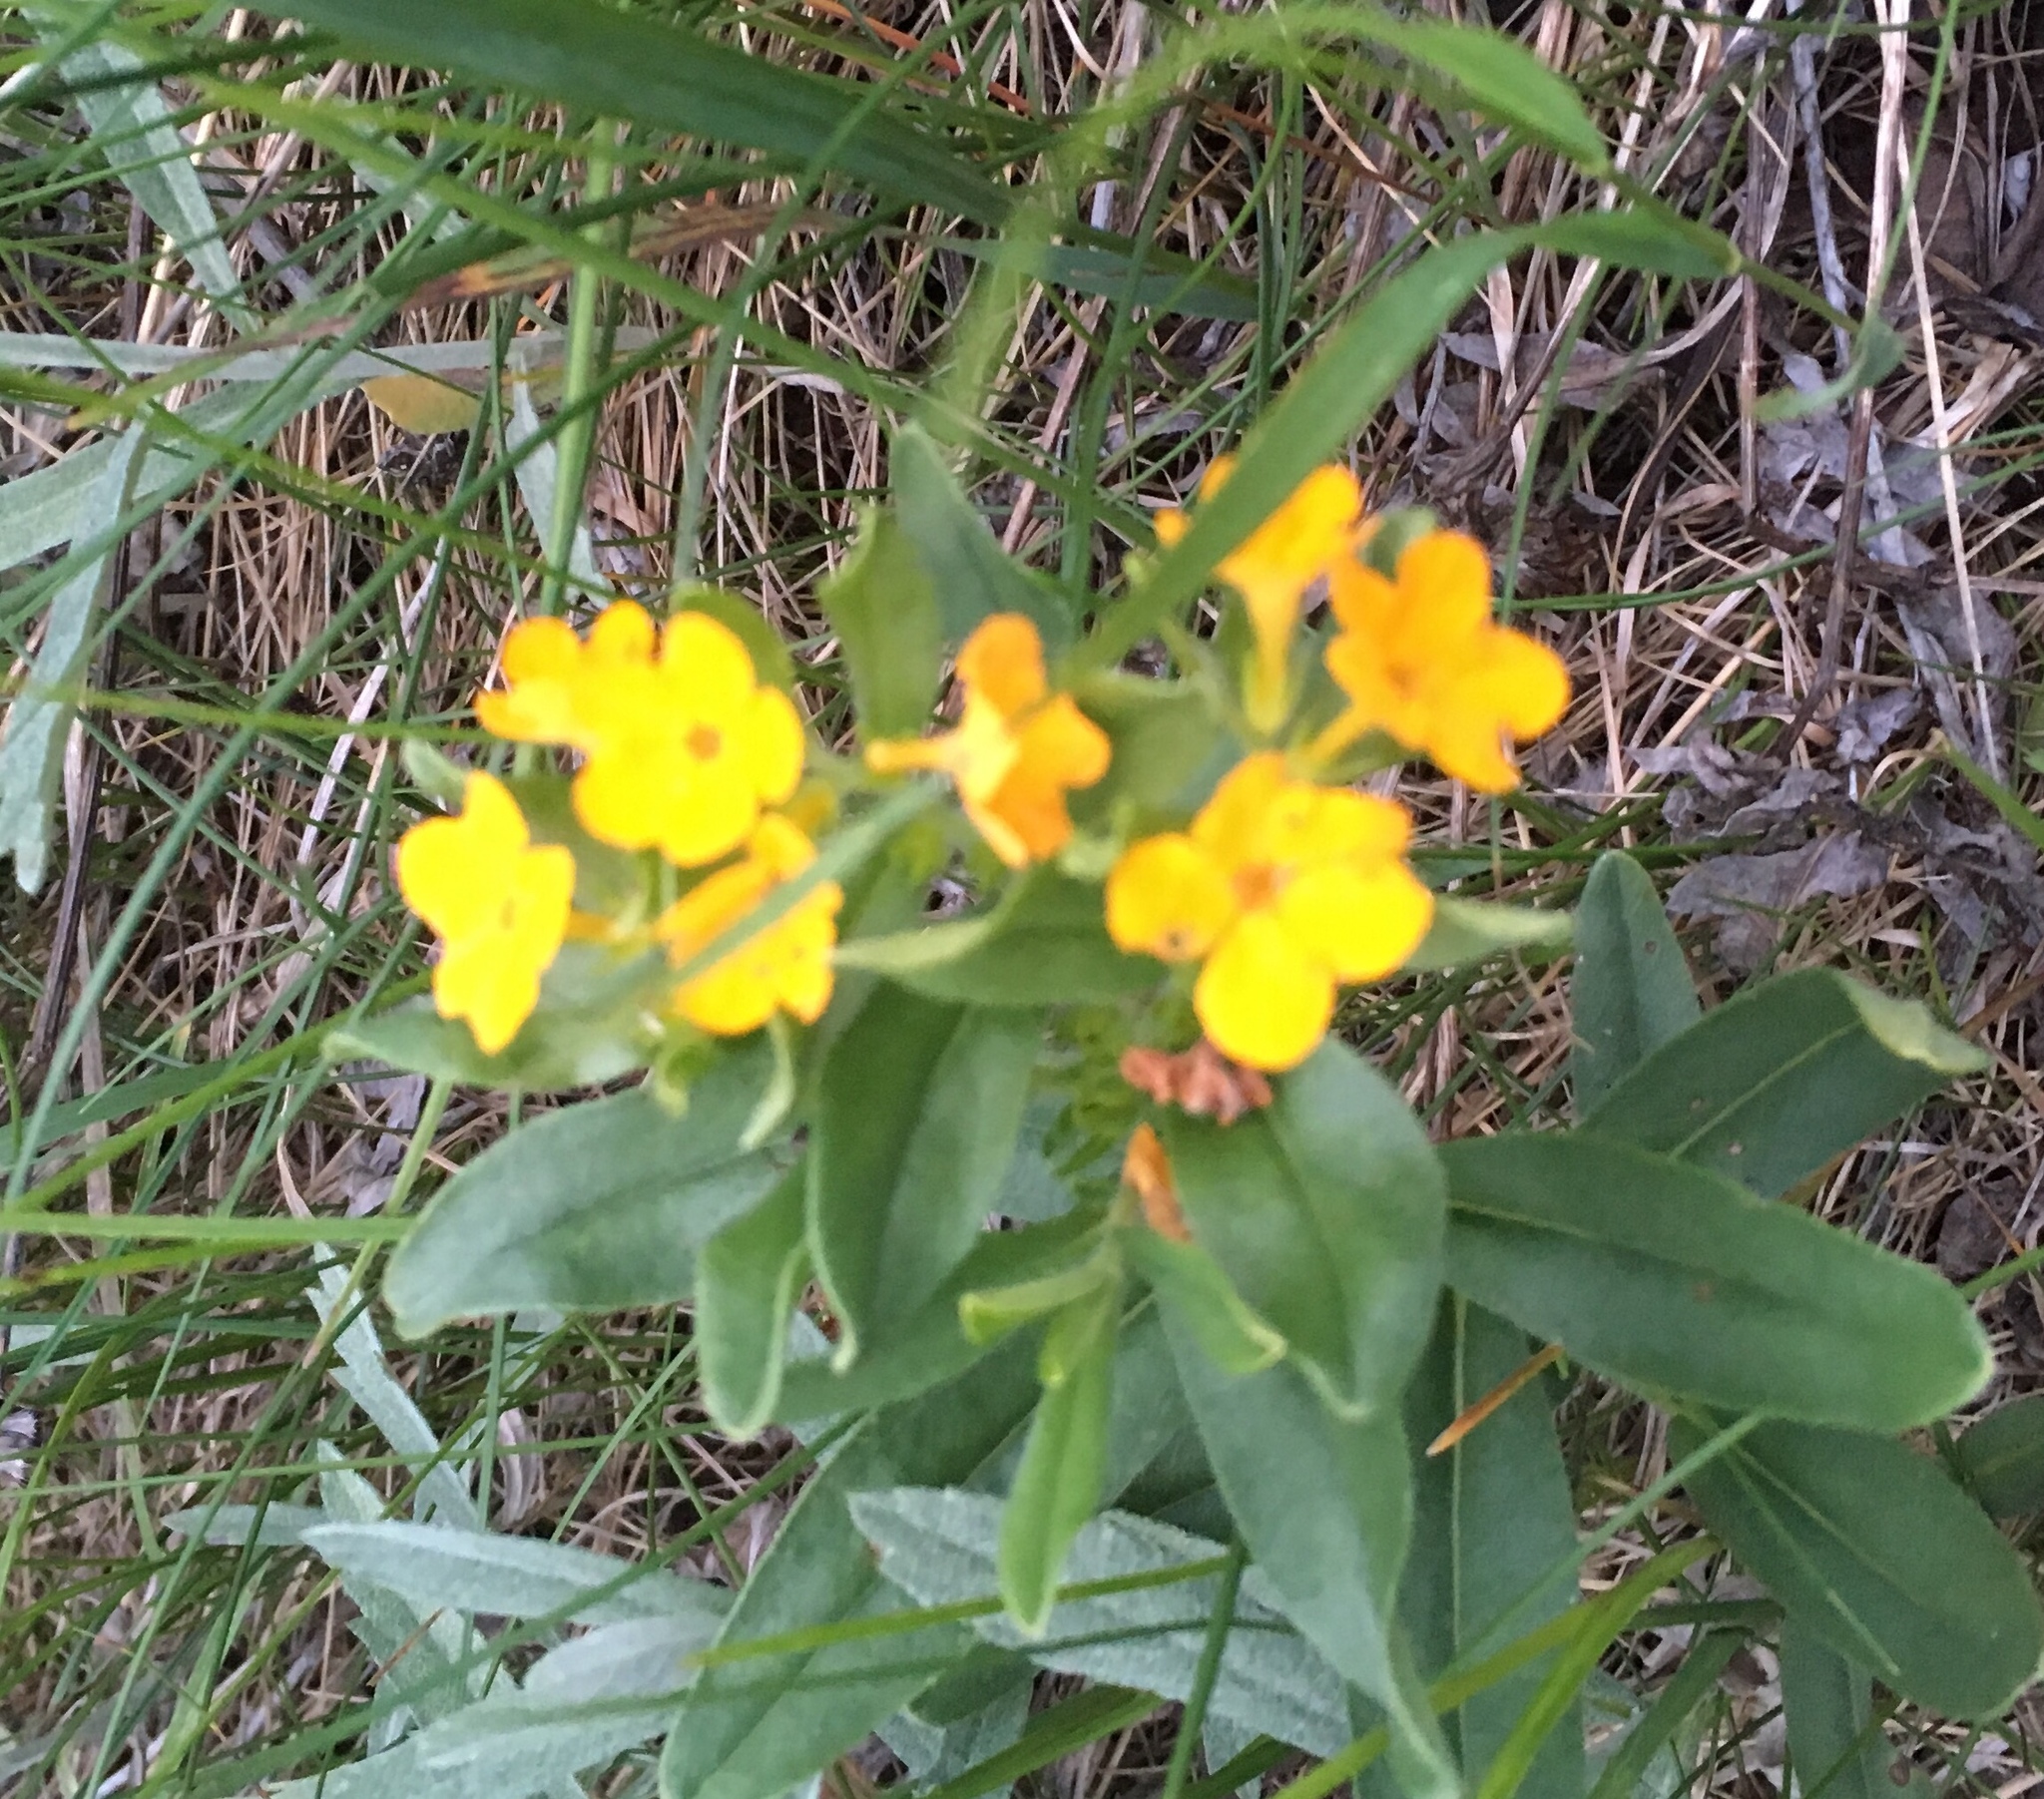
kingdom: Plantae
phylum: Tracheophyta
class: Magnoliopsida
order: Boraginales
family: Boraginaceae
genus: Lithospermum
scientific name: Lithospermum canescens
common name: Hoary puccoon
